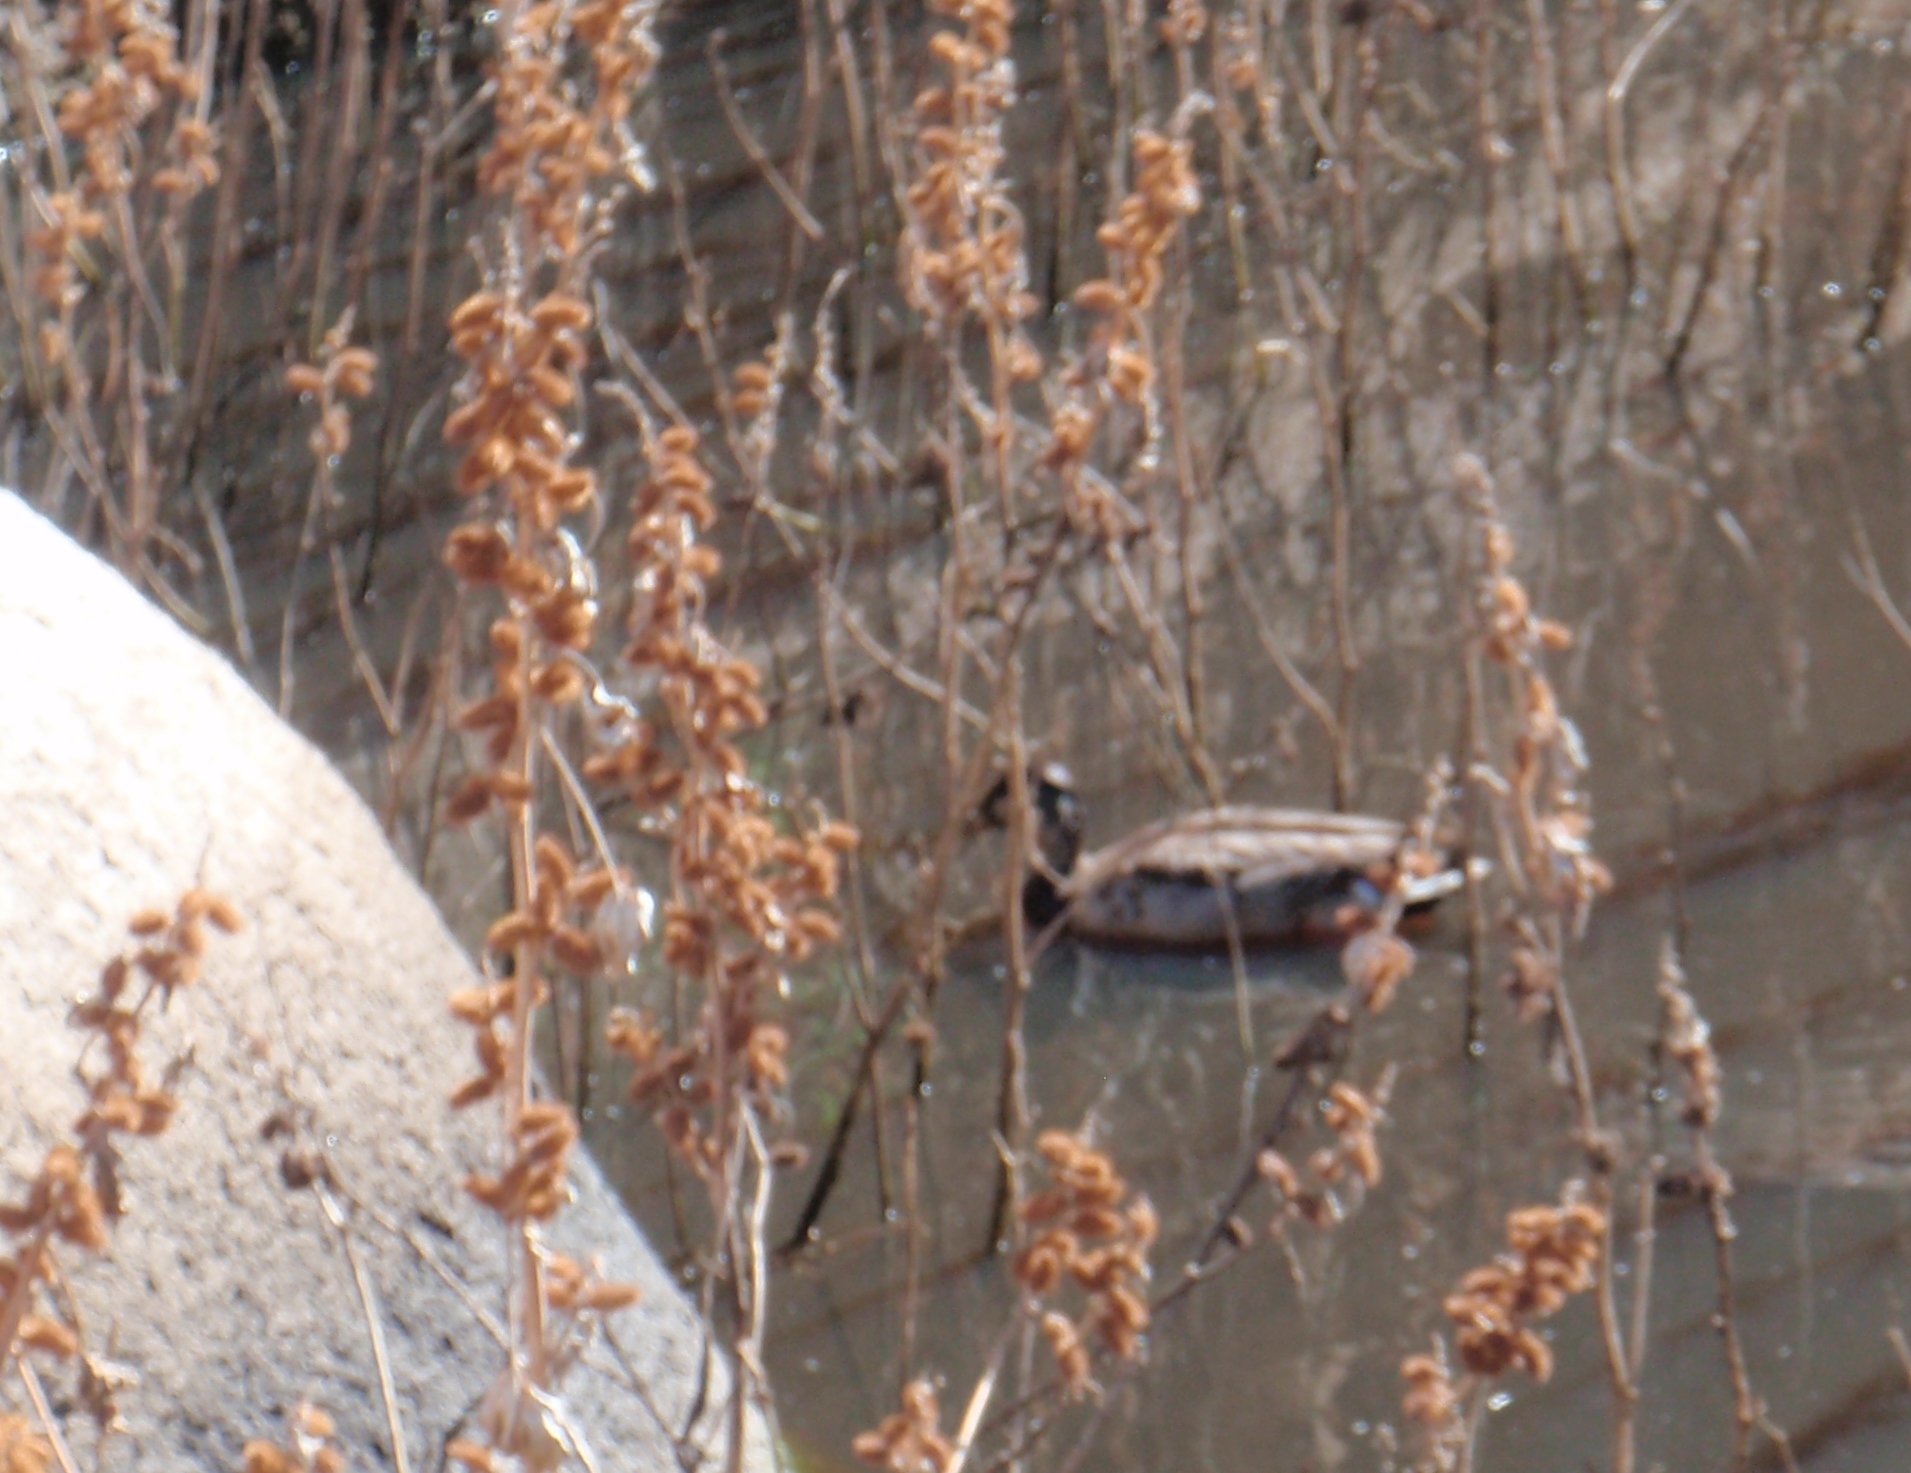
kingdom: Animalia
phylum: Chordata
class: Aves
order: Anseriformes
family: Anatidae
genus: Anas
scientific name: Anas platyrhynchos
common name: Mallard
